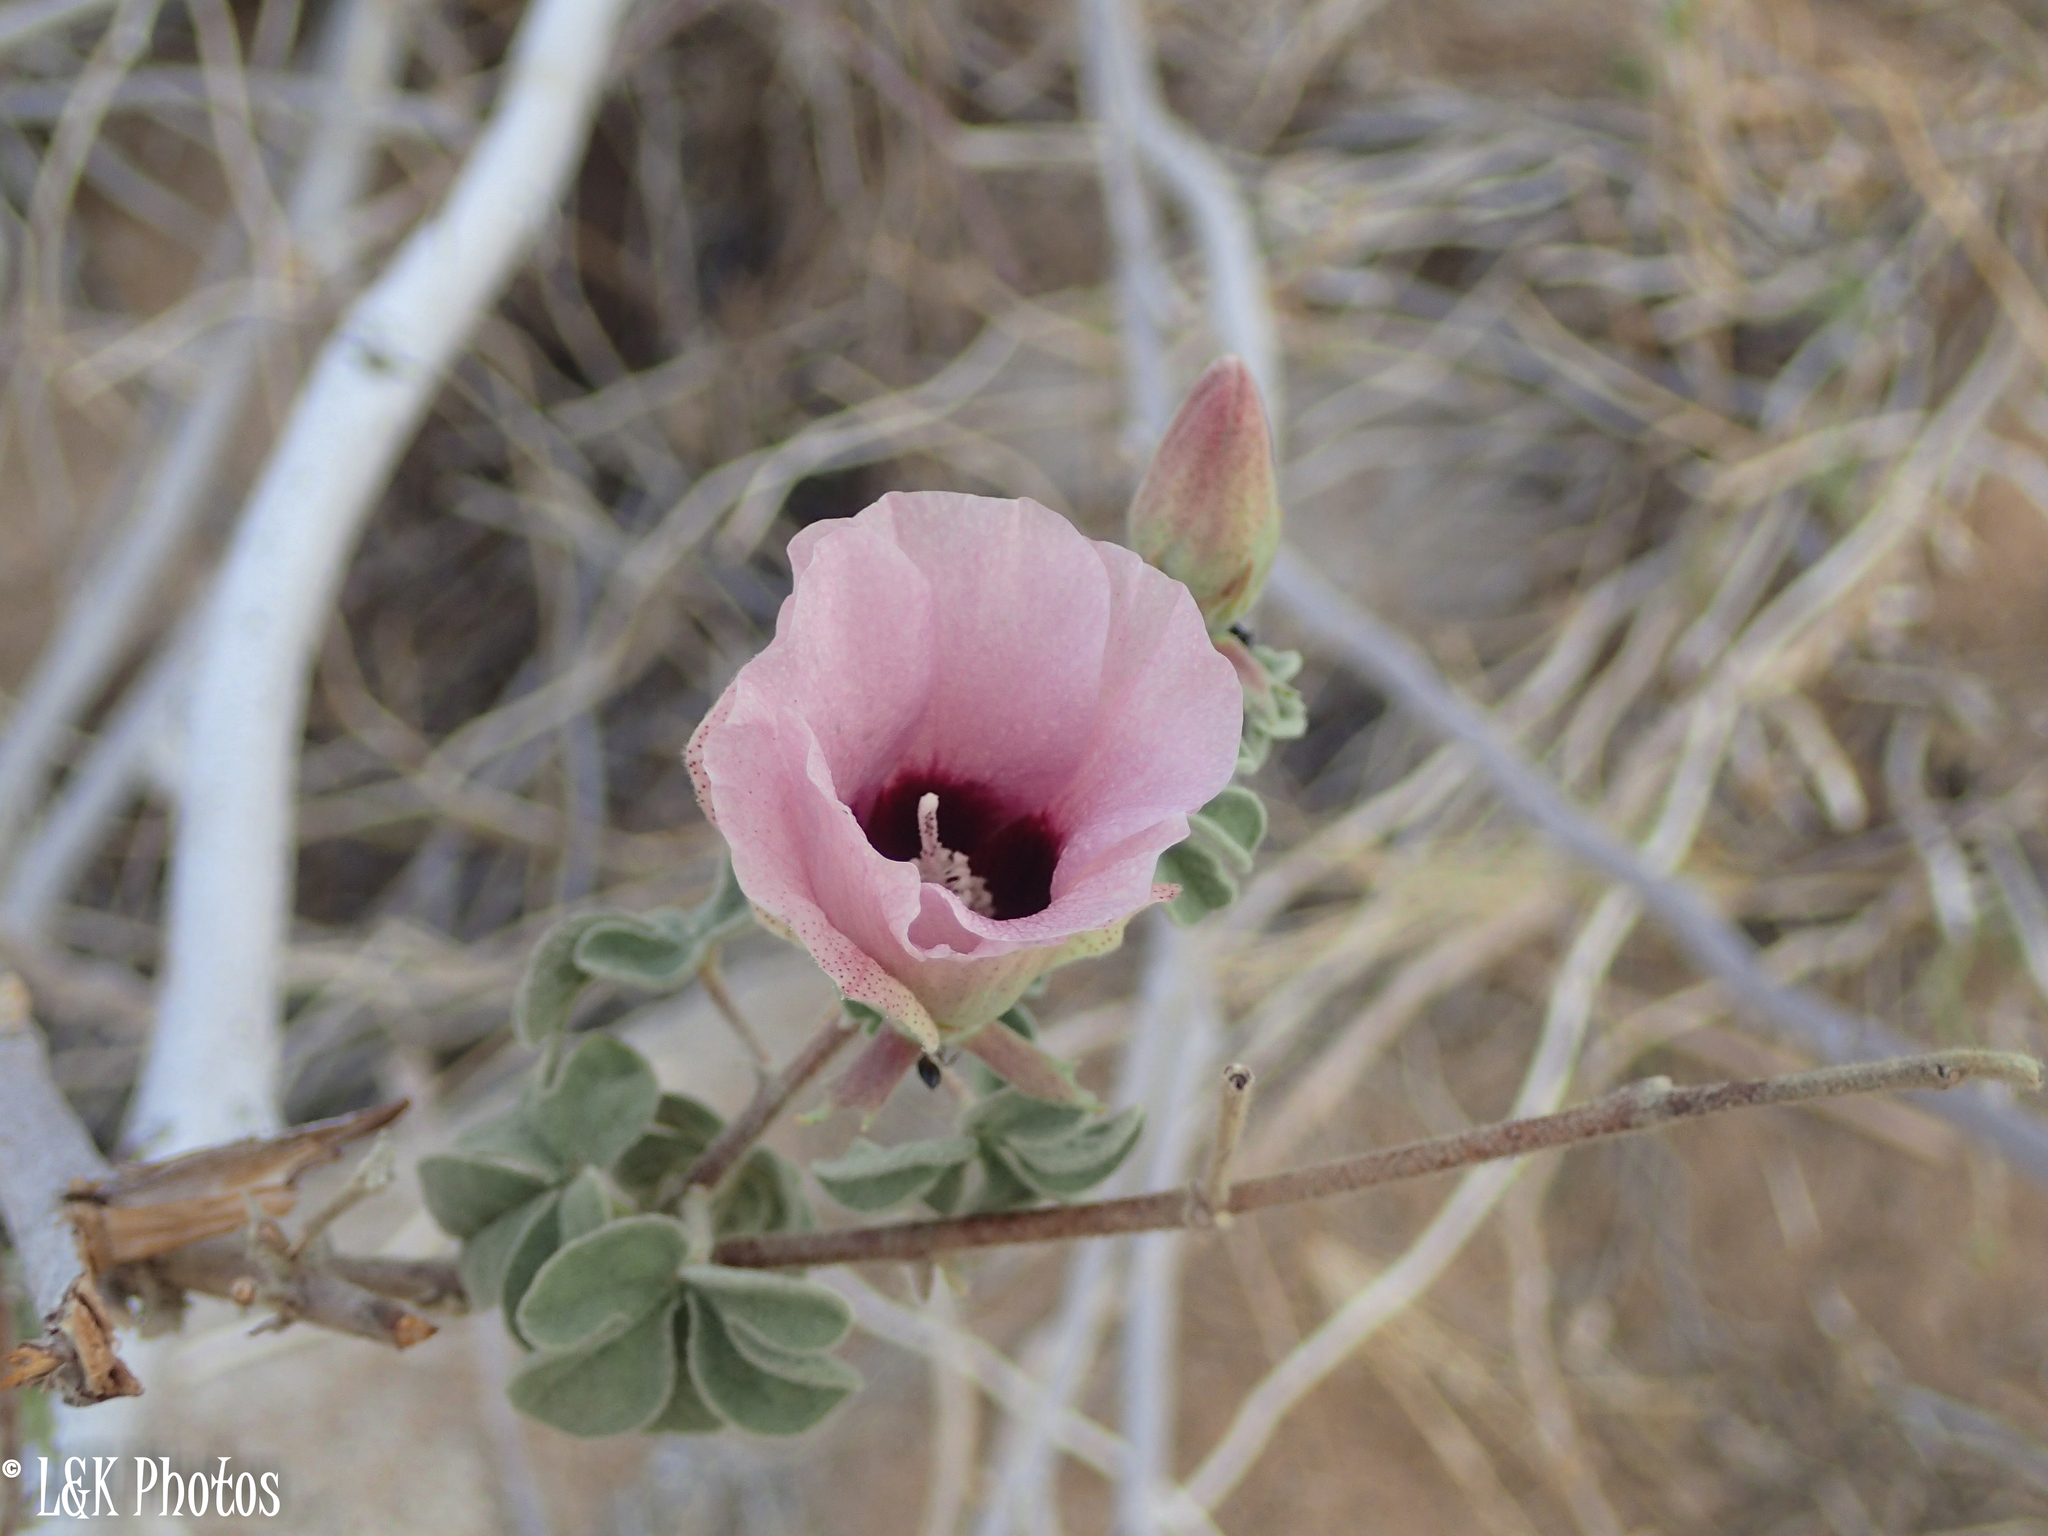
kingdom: Plantae
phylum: Tracheophyta
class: Magnoliopsida
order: Malvales
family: Malvaceae
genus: Gossypium
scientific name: Gossypium anomalum
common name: African wild cotton
